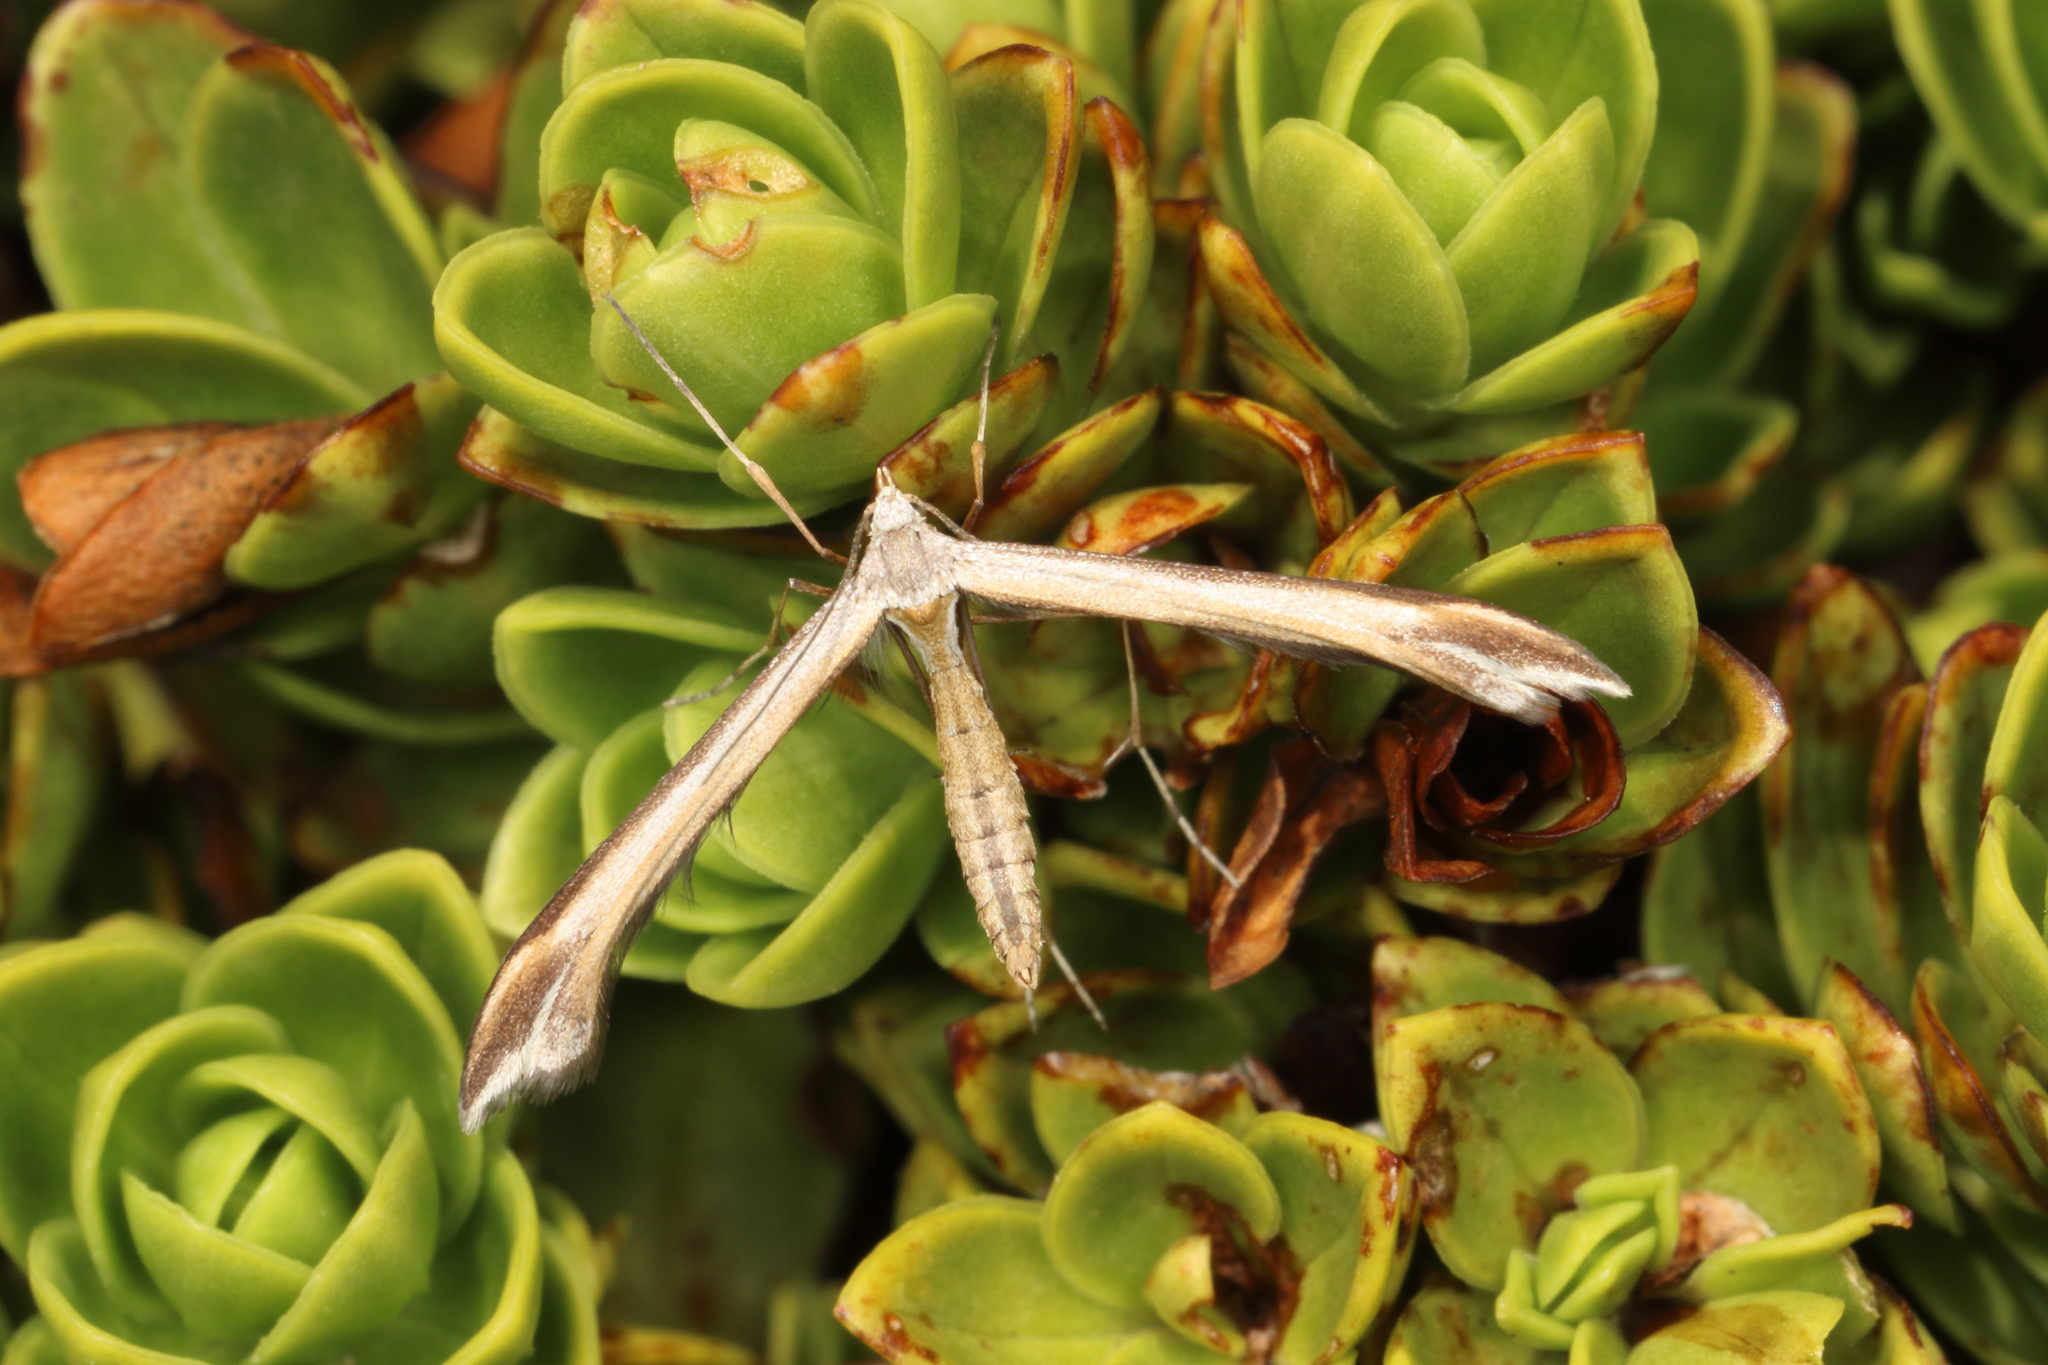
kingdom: Animalia
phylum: Arthropoda
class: Insecta
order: Lepidoptera
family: Pterophoridae
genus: Amblyptilia
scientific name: Amblyptilia epotis
